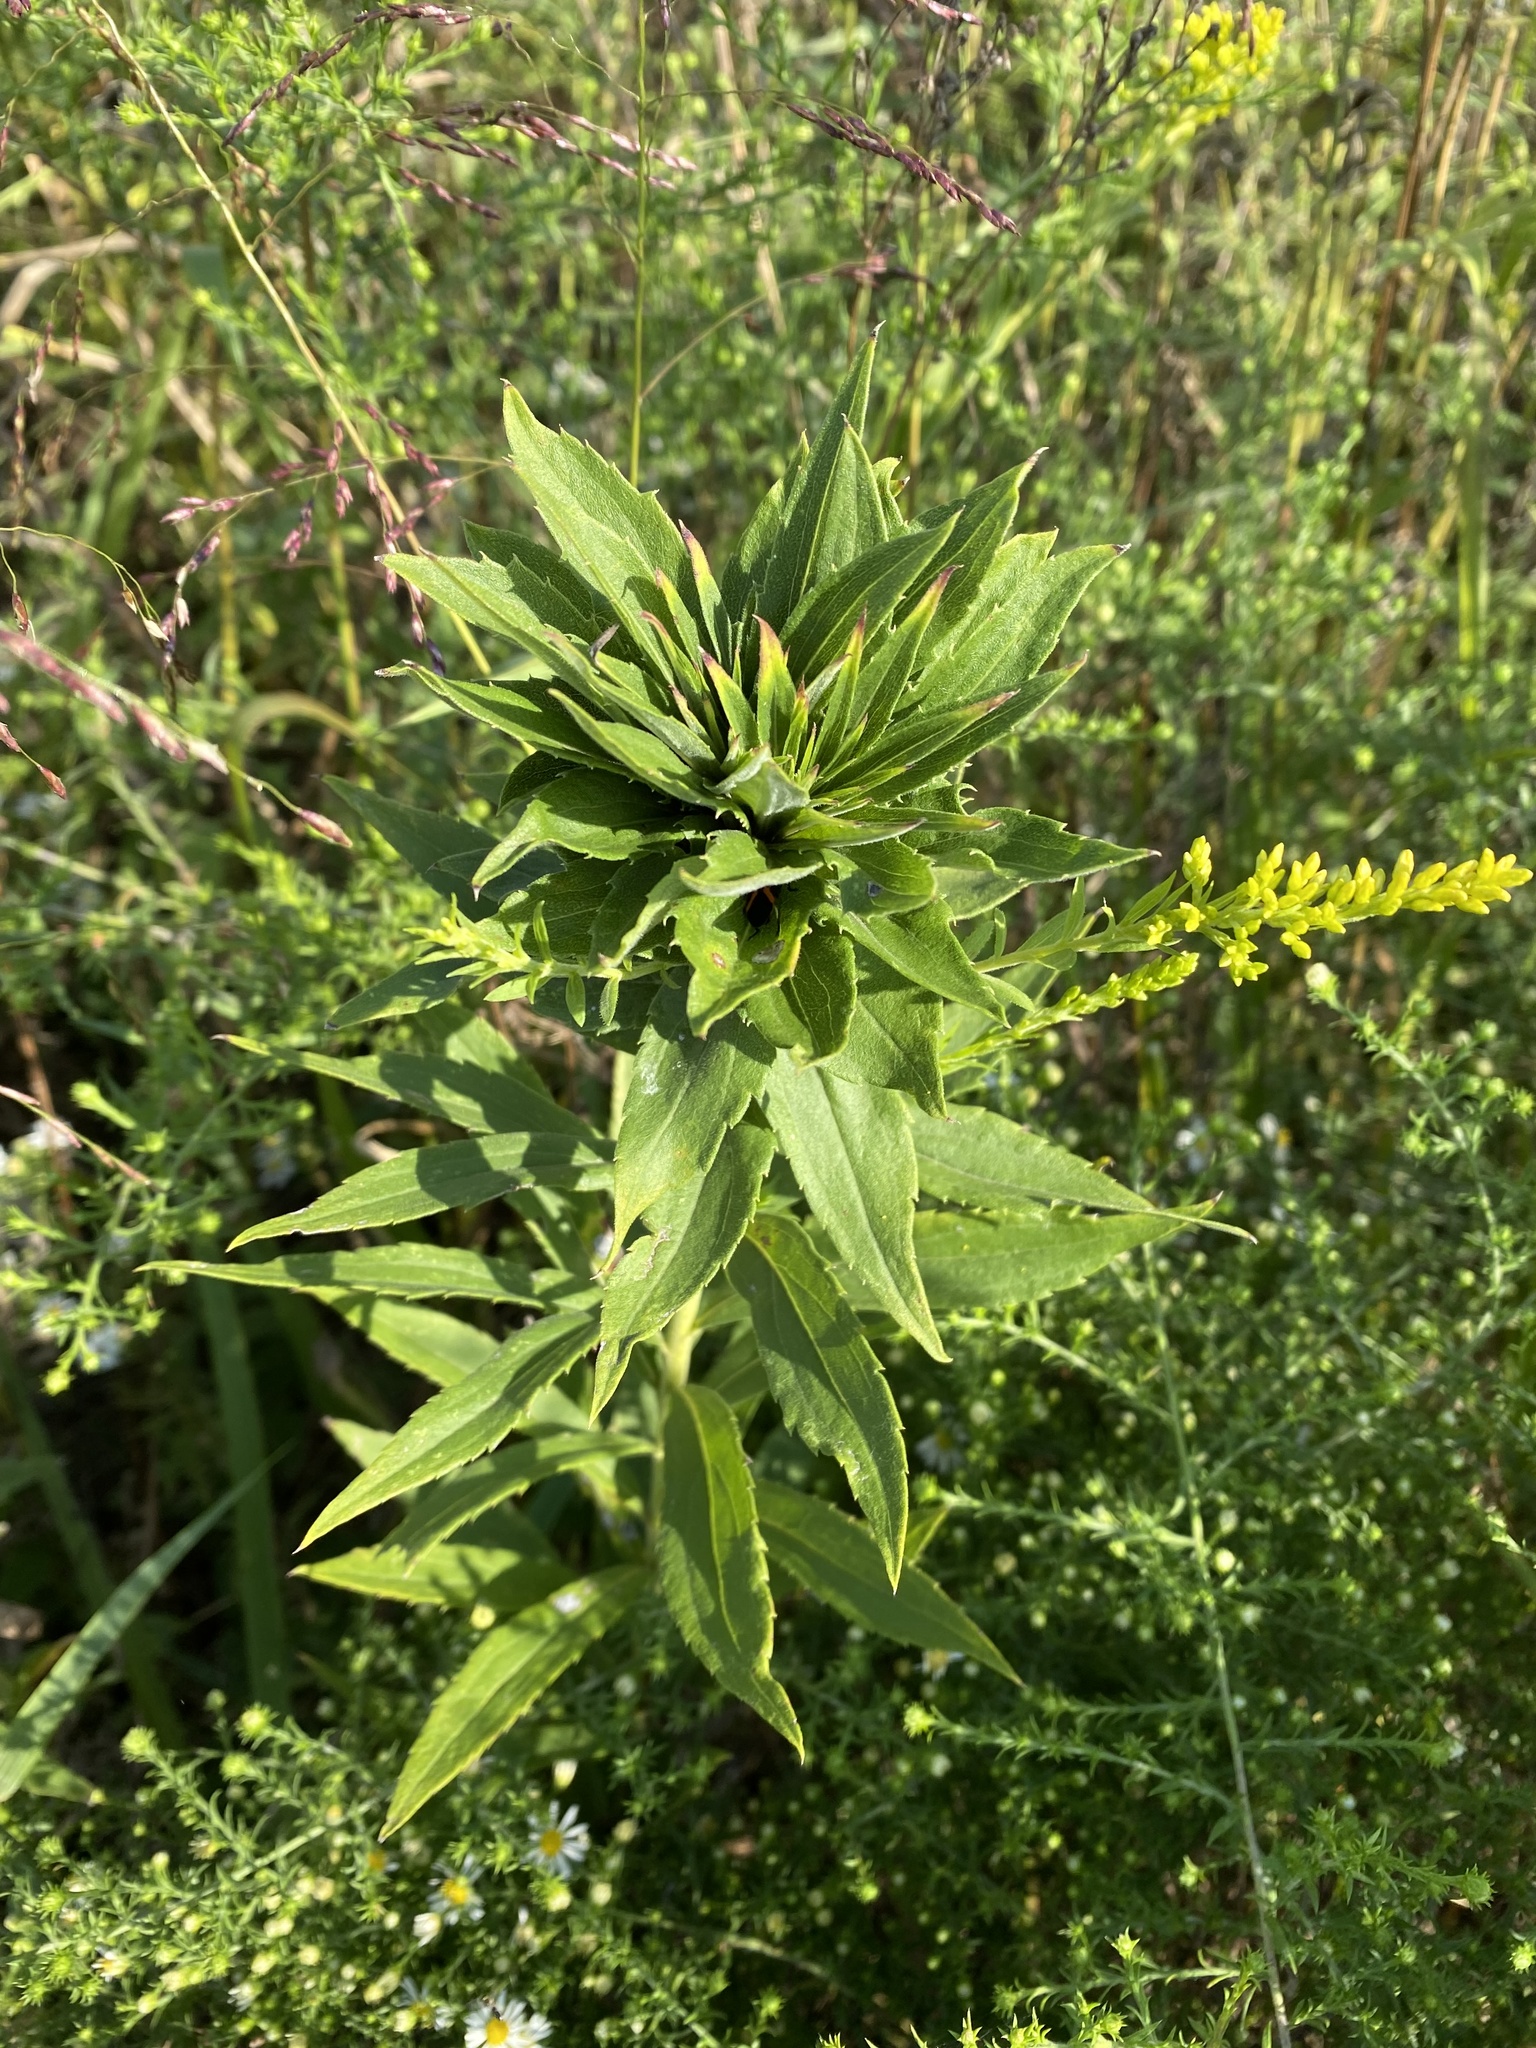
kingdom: Animalia
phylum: Arthropoda
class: Insecta
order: Diptera
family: Cecidomyiidae
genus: Rhopalomyia
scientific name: Rhopalomyia solidaginis
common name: Goldenrod bunch gall midge
